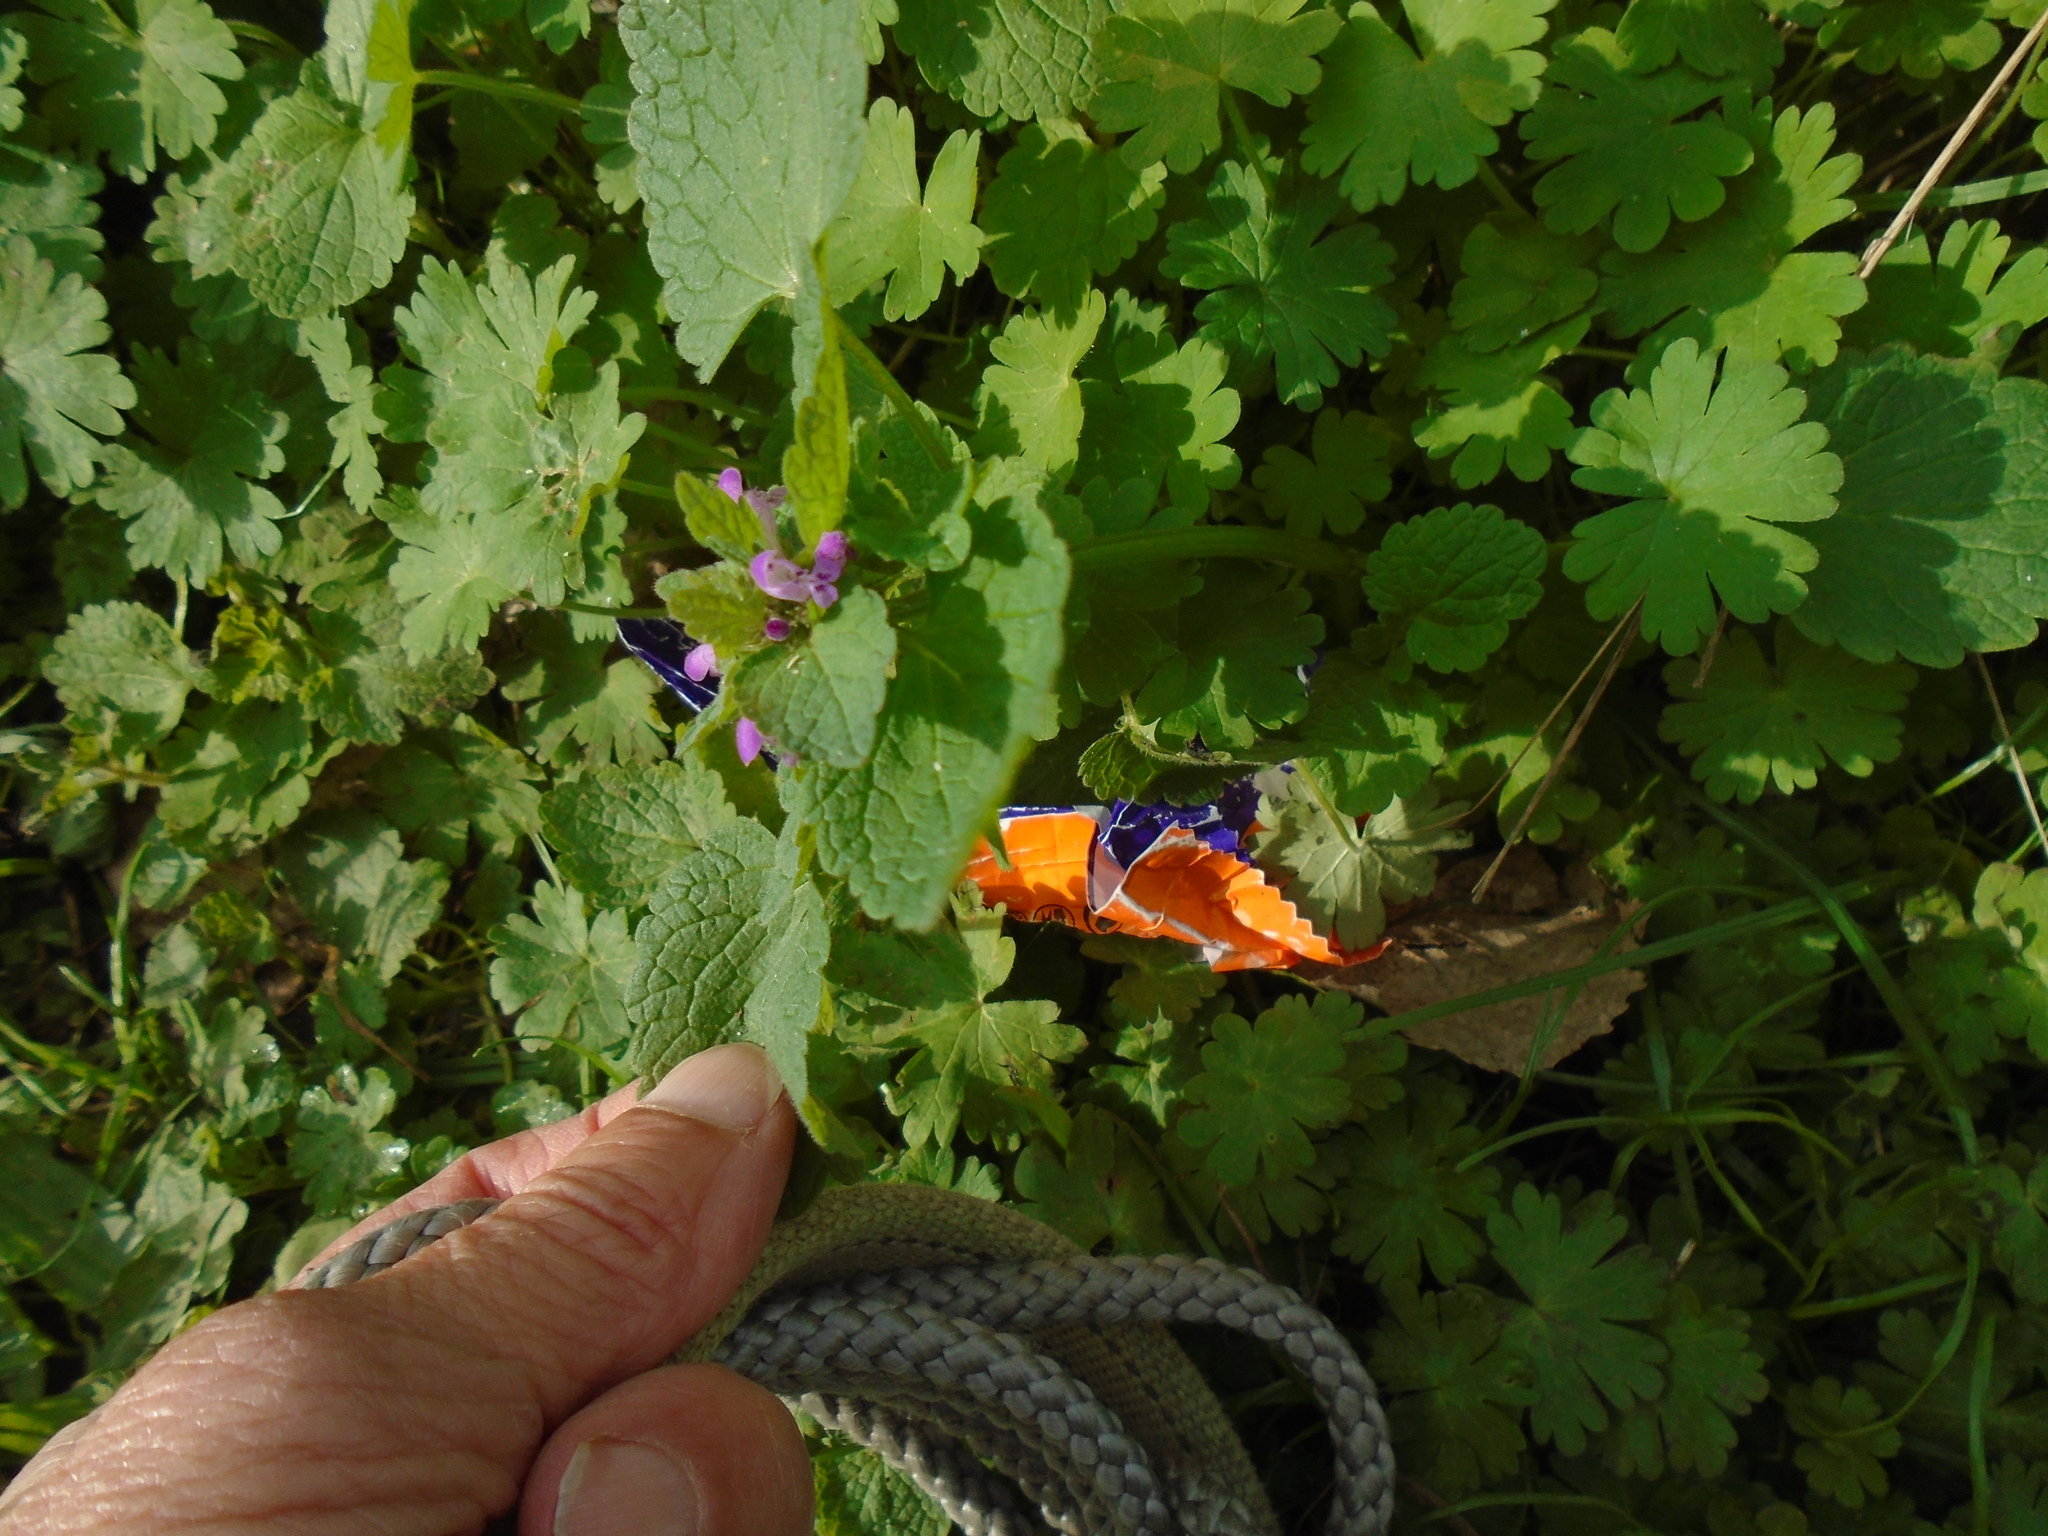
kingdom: Plantae
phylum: Tracheophyta
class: Magnoliopsida
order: Lamiales
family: Lamiaceae
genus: Lamium
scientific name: Lamium purpureum
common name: Red dead-nettle
